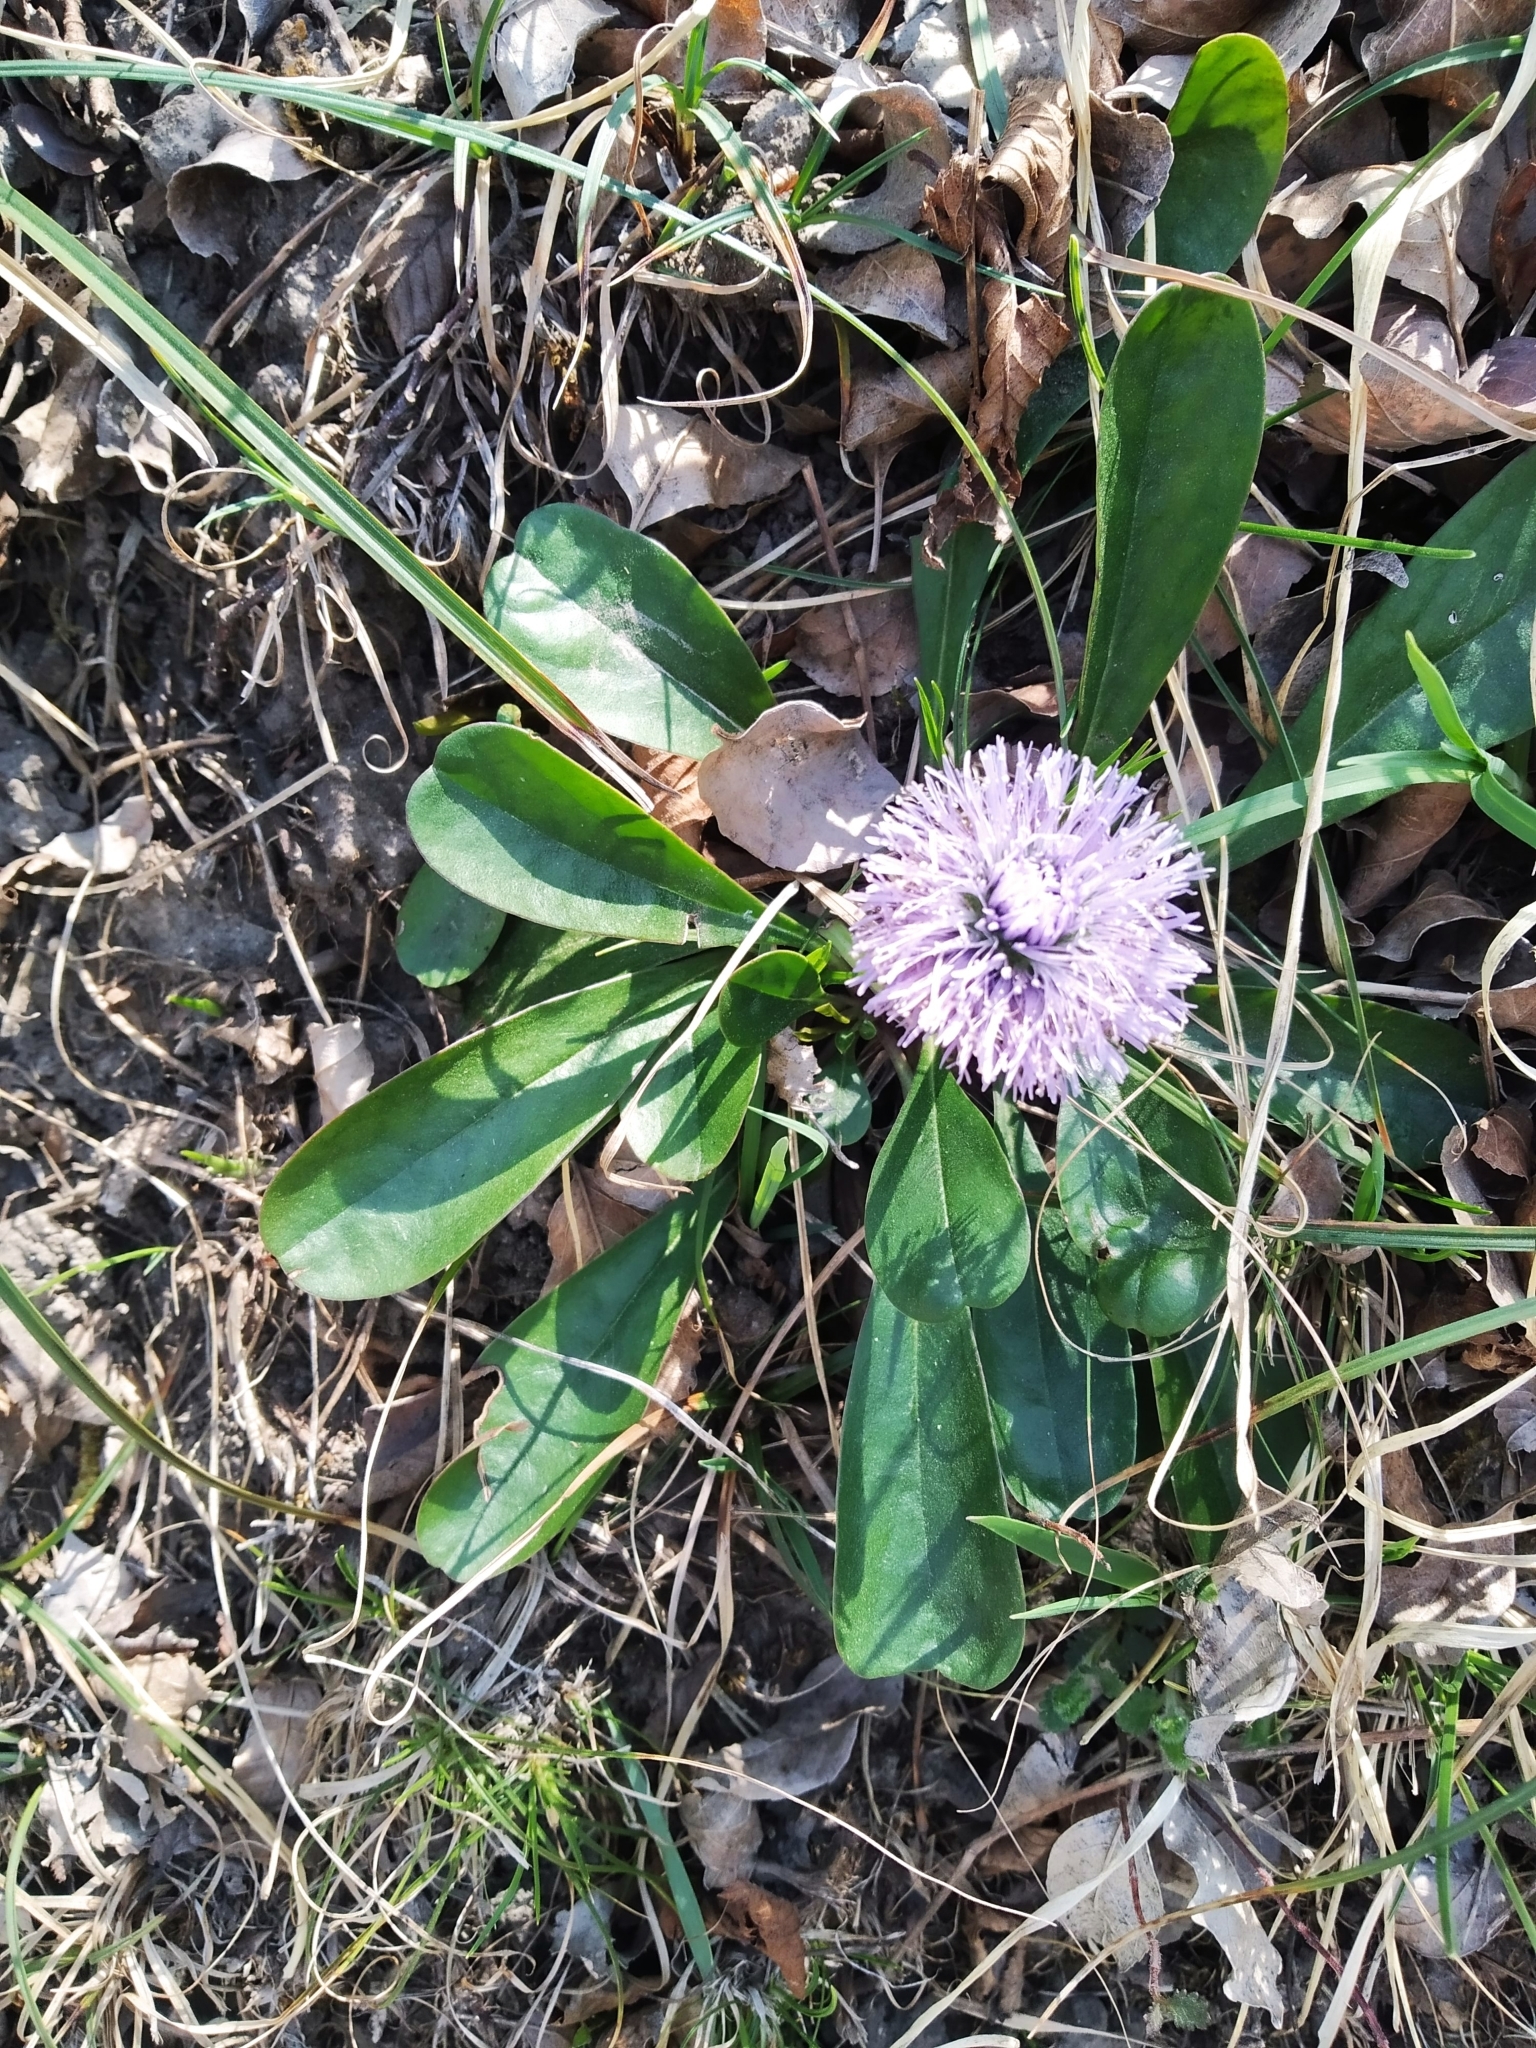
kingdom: Plantae
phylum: Tracheophyta
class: Magnoliopsida
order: Lamiales
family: Plantaginaceae
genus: Globularia
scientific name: Globularia nudicaulis
